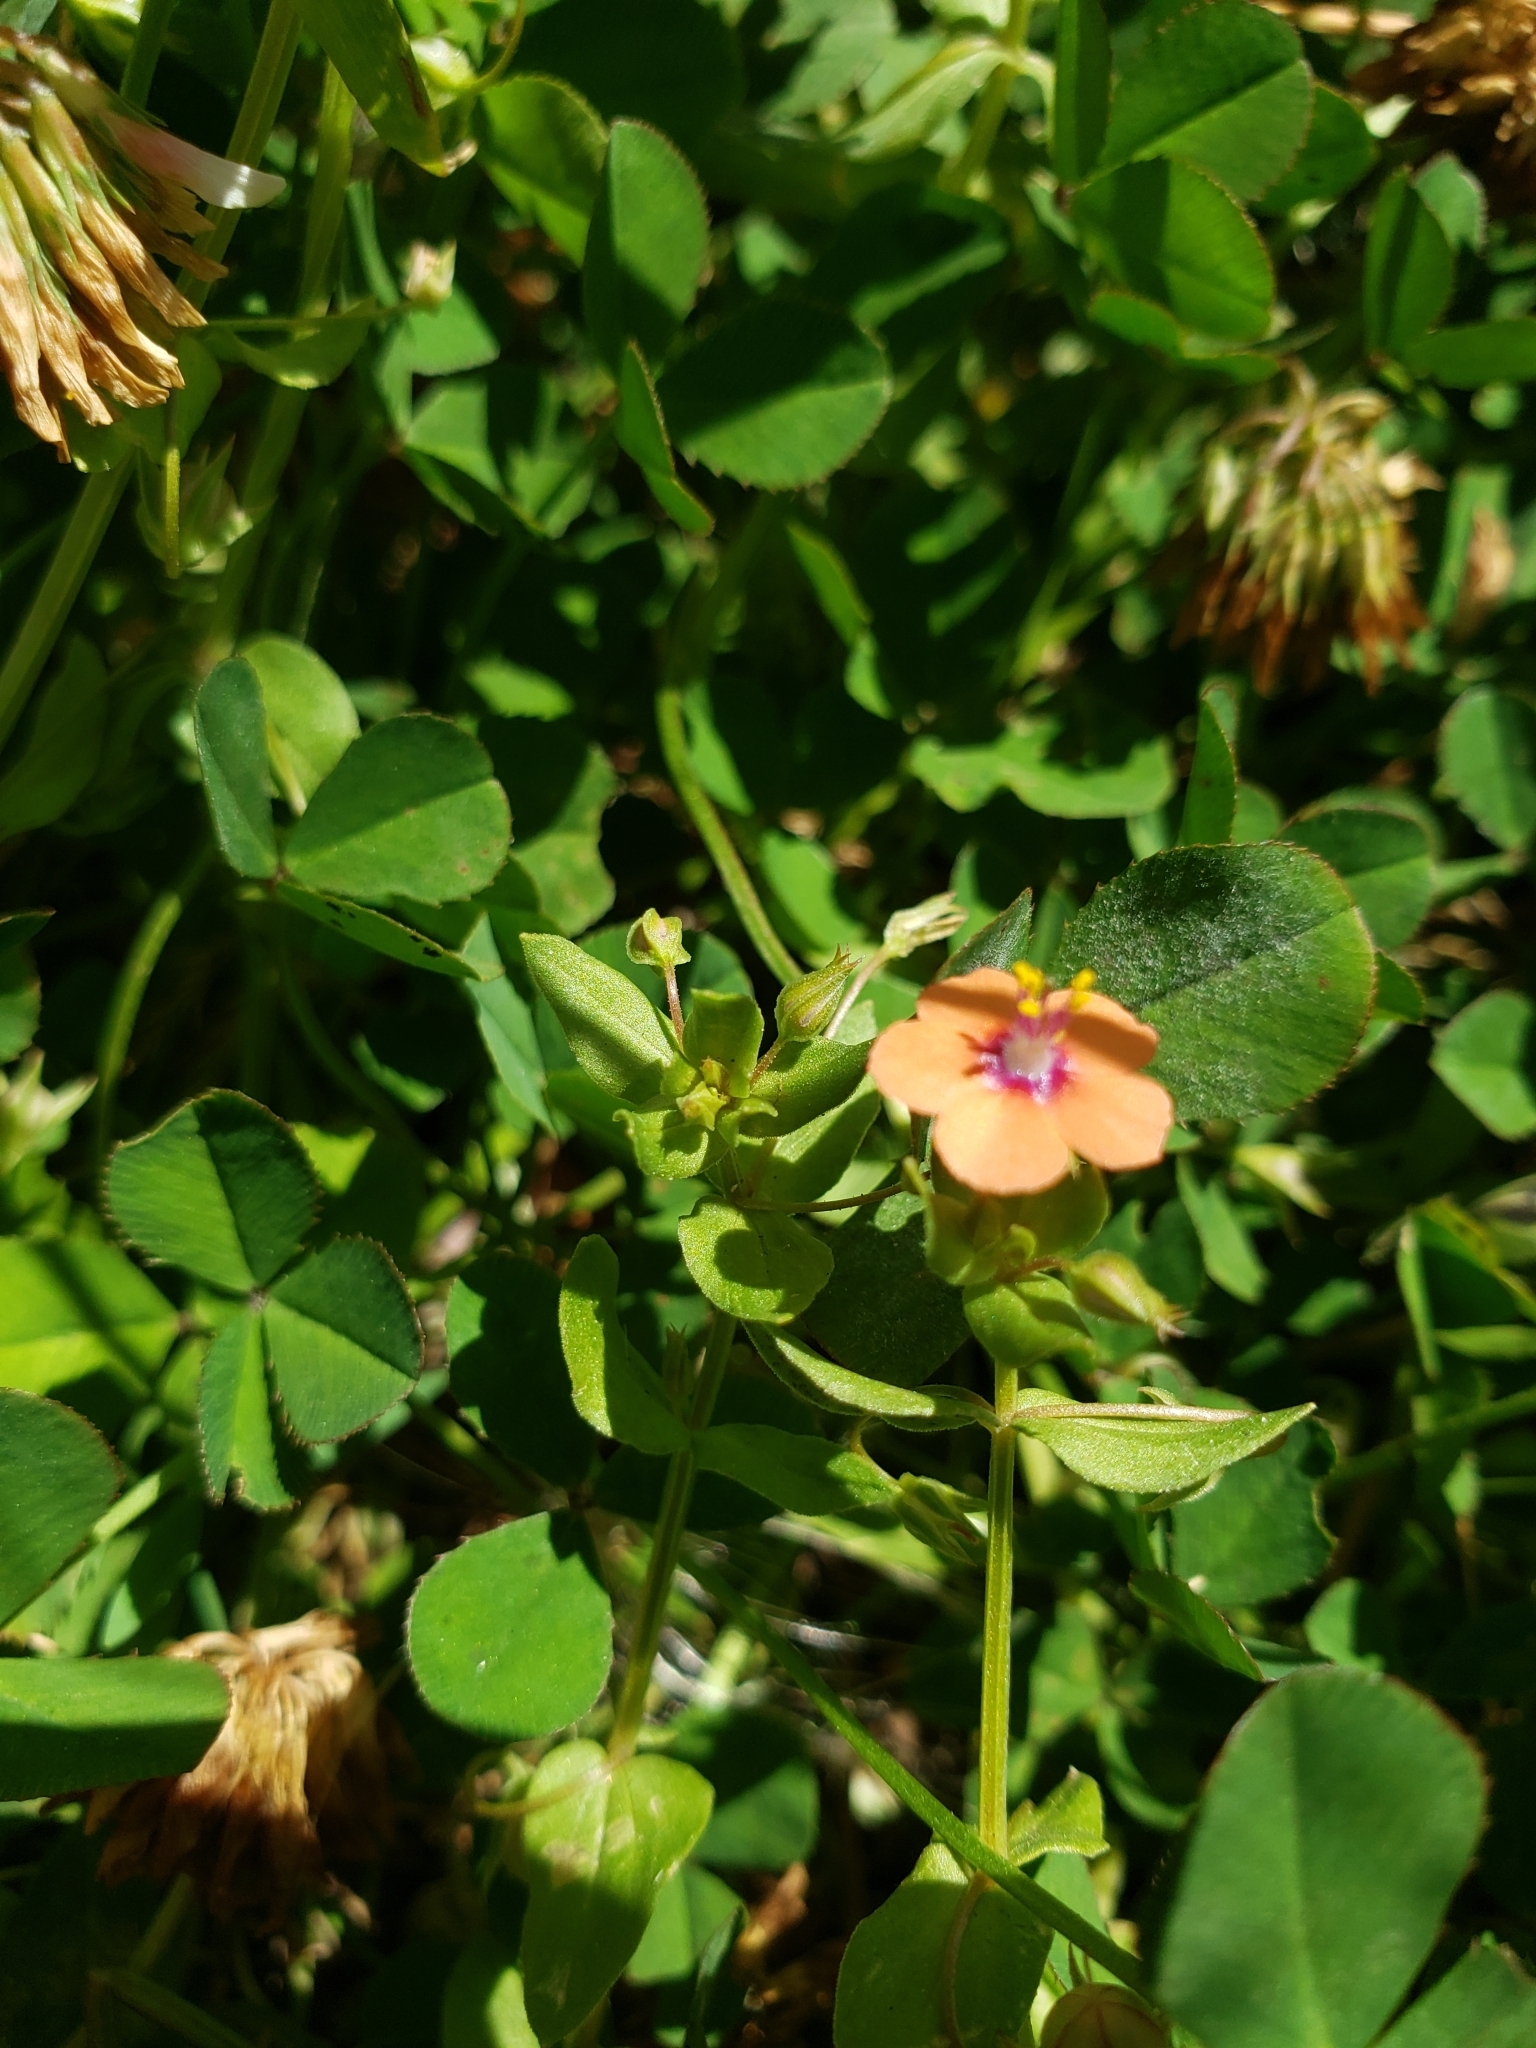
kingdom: Plantae
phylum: Tracheophyta
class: Magnoliopsida
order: Ericales
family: Primulaceae
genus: Lysimachia
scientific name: Lysimachia arvensis
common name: Scarlet pimpernel
